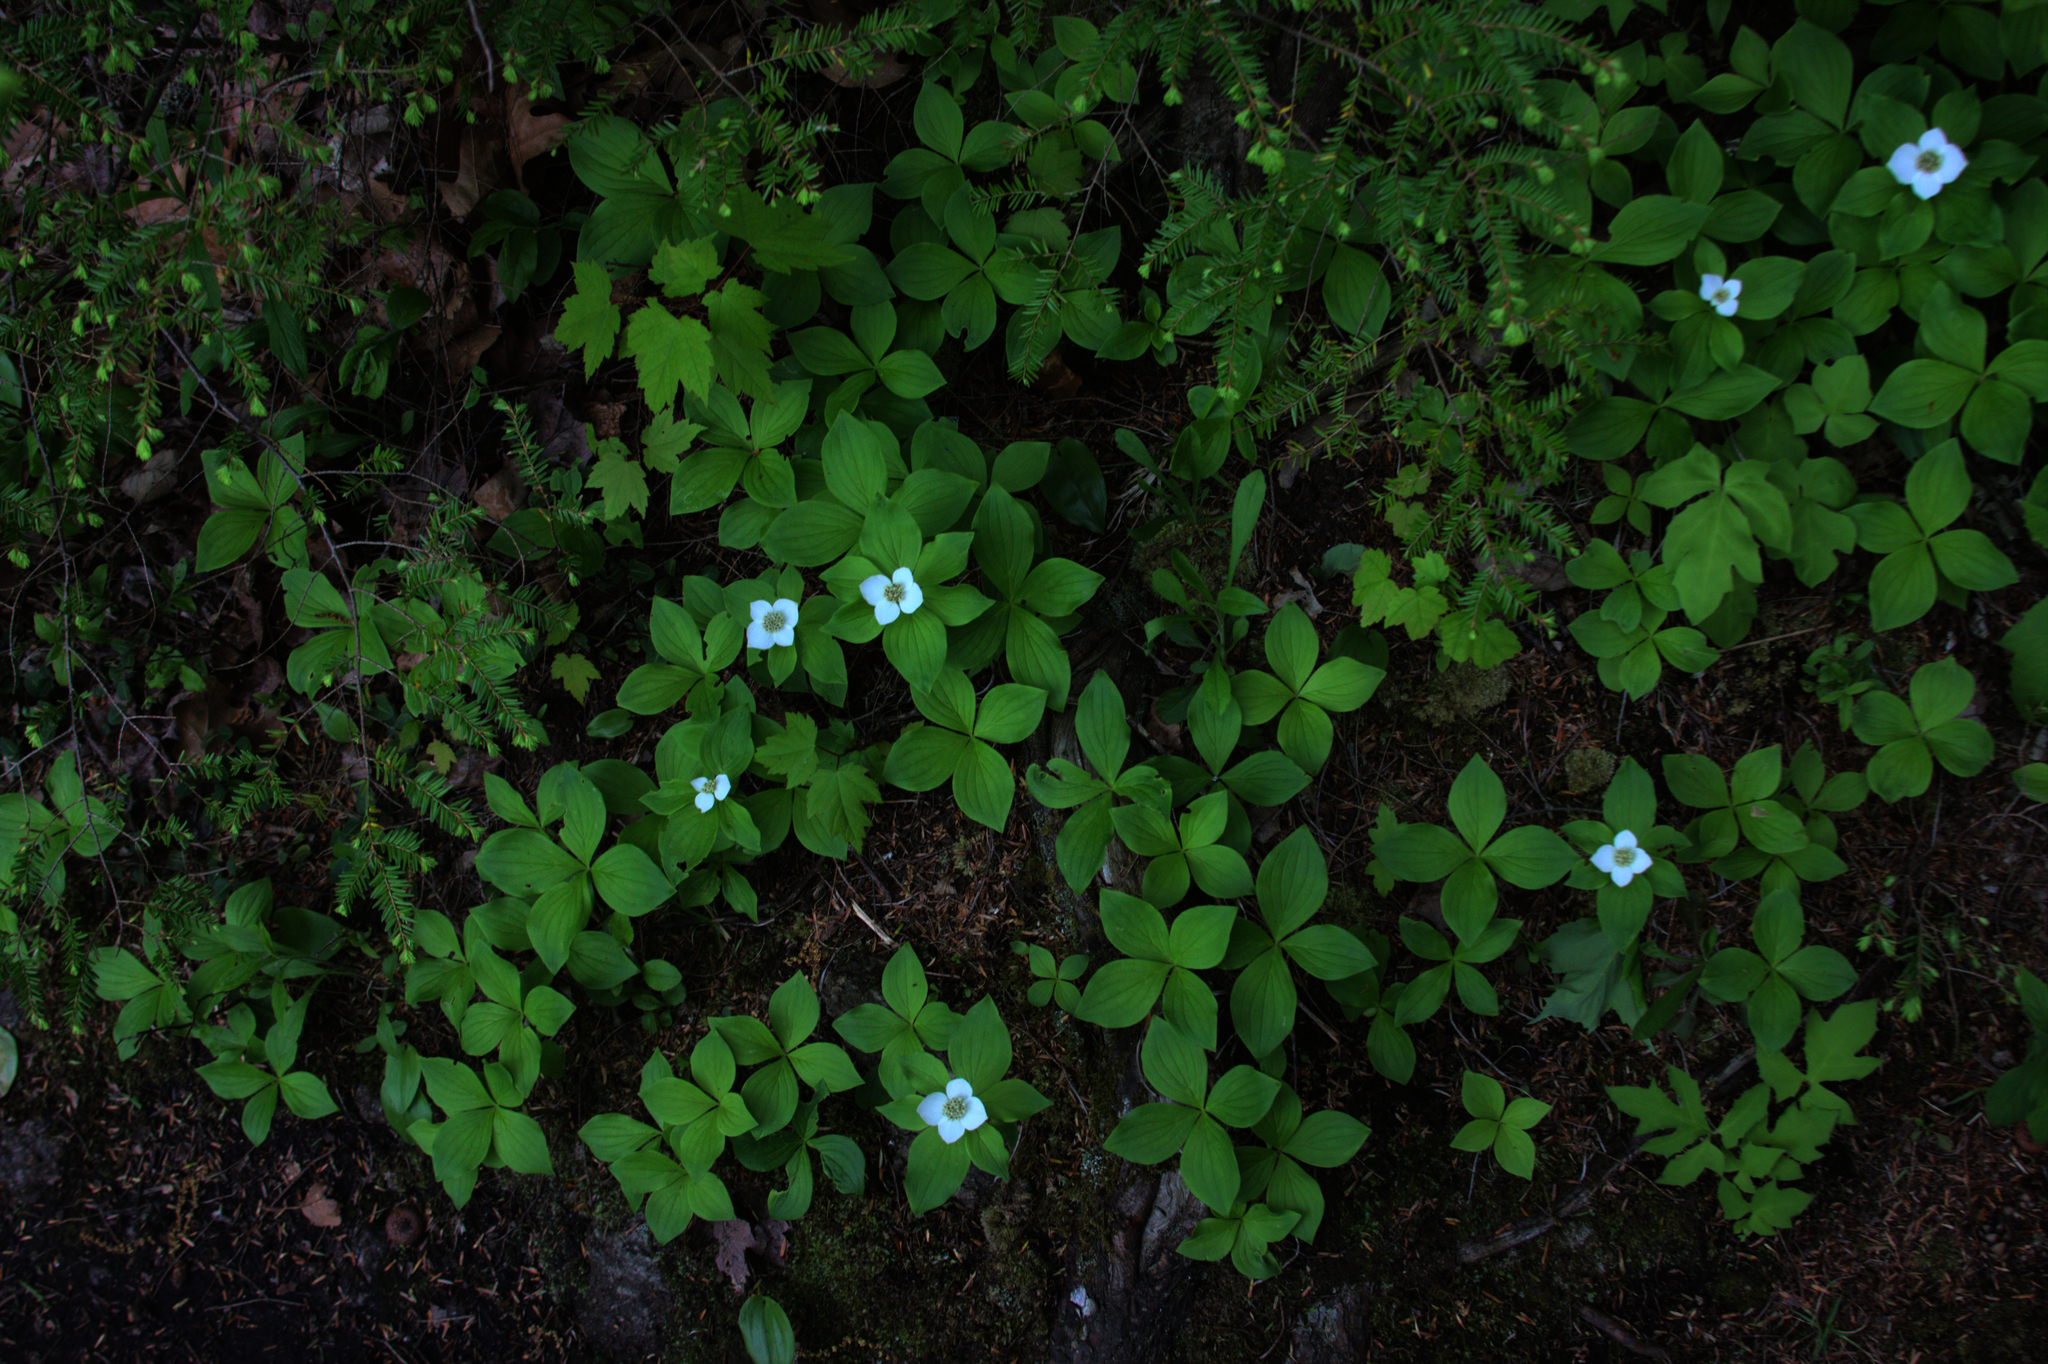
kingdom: Plantae
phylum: Tracheophyta
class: Magnoliopsida
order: Cornales
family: Cornaceae
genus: Cornus
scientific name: Cornus canadensis
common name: Creeping dogwood
